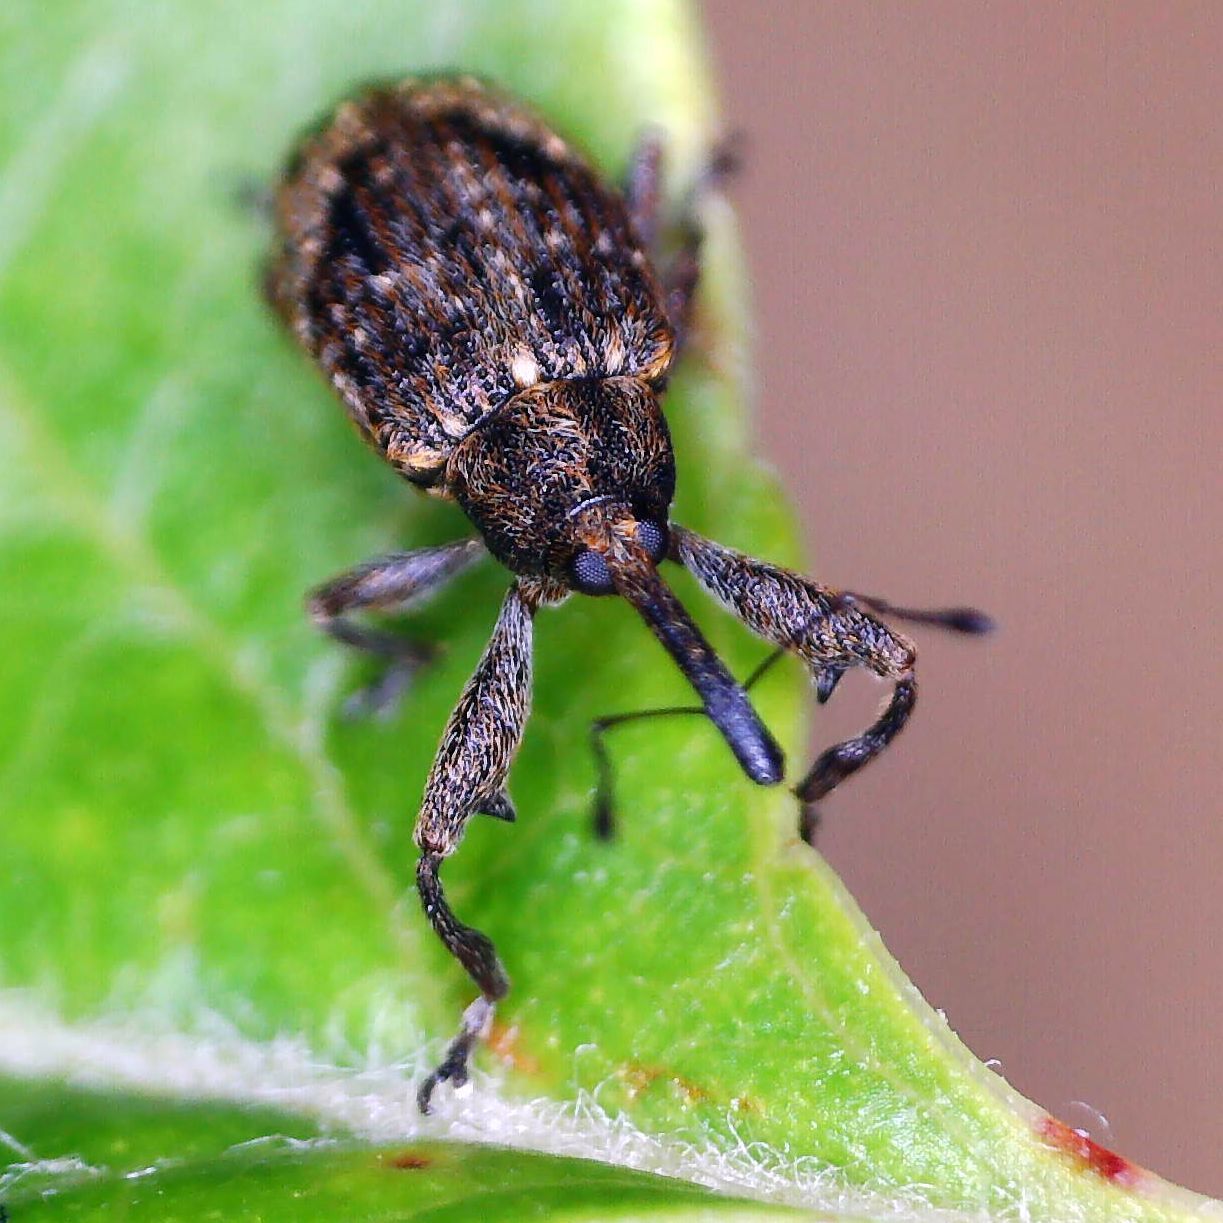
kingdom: Animalia
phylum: Arthropoda
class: Insecta
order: Coleoptera
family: Curculionidae
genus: Anthonomus
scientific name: Anthonomus pomorum
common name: Apple-blossom weevil
